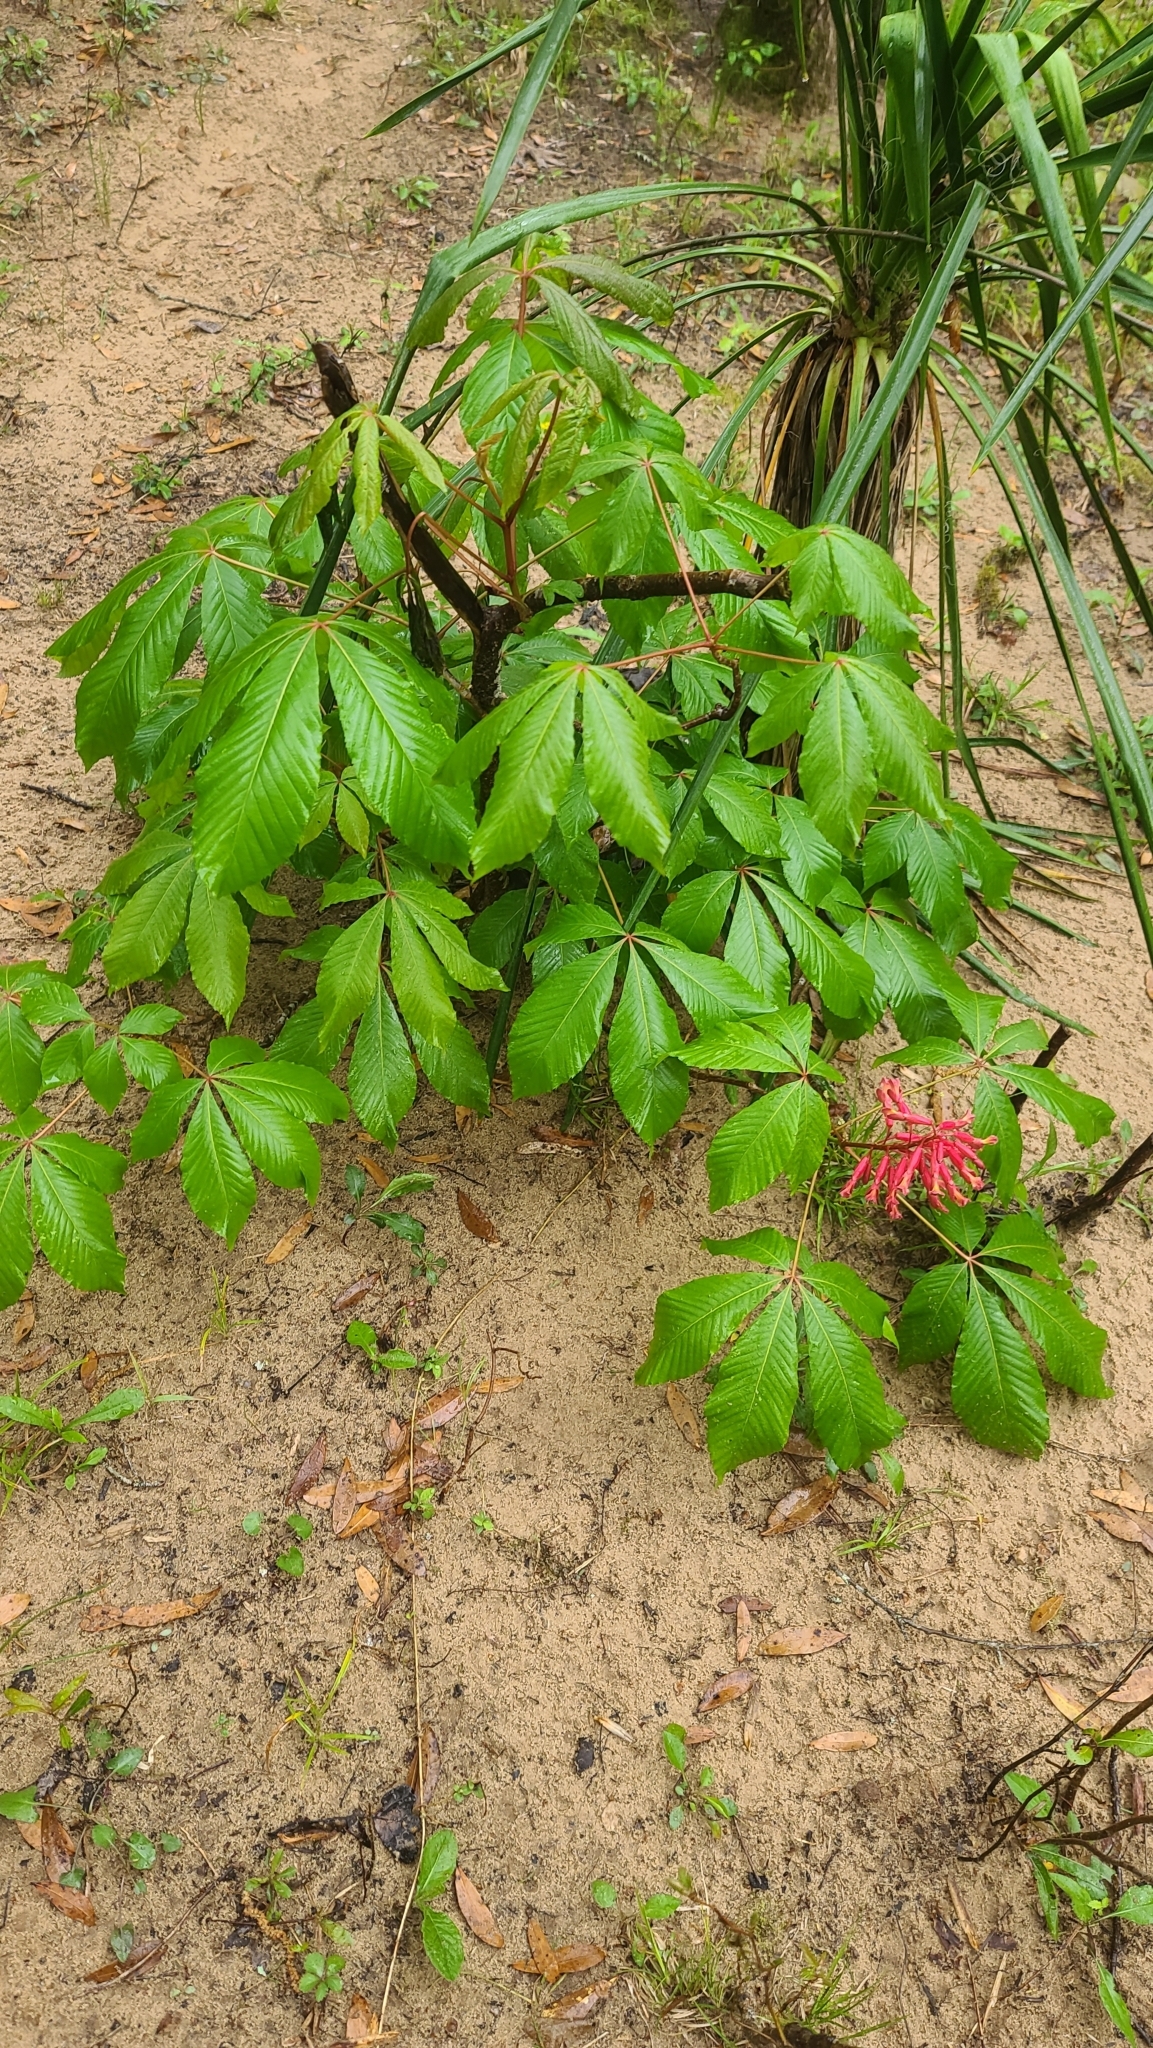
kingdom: Plantae
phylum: Tracheophyta
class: Magnoliopsida
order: Sapindales
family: Sapindaceae
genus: Aesculus
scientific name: Aesculus pavia
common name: Red buckeye
